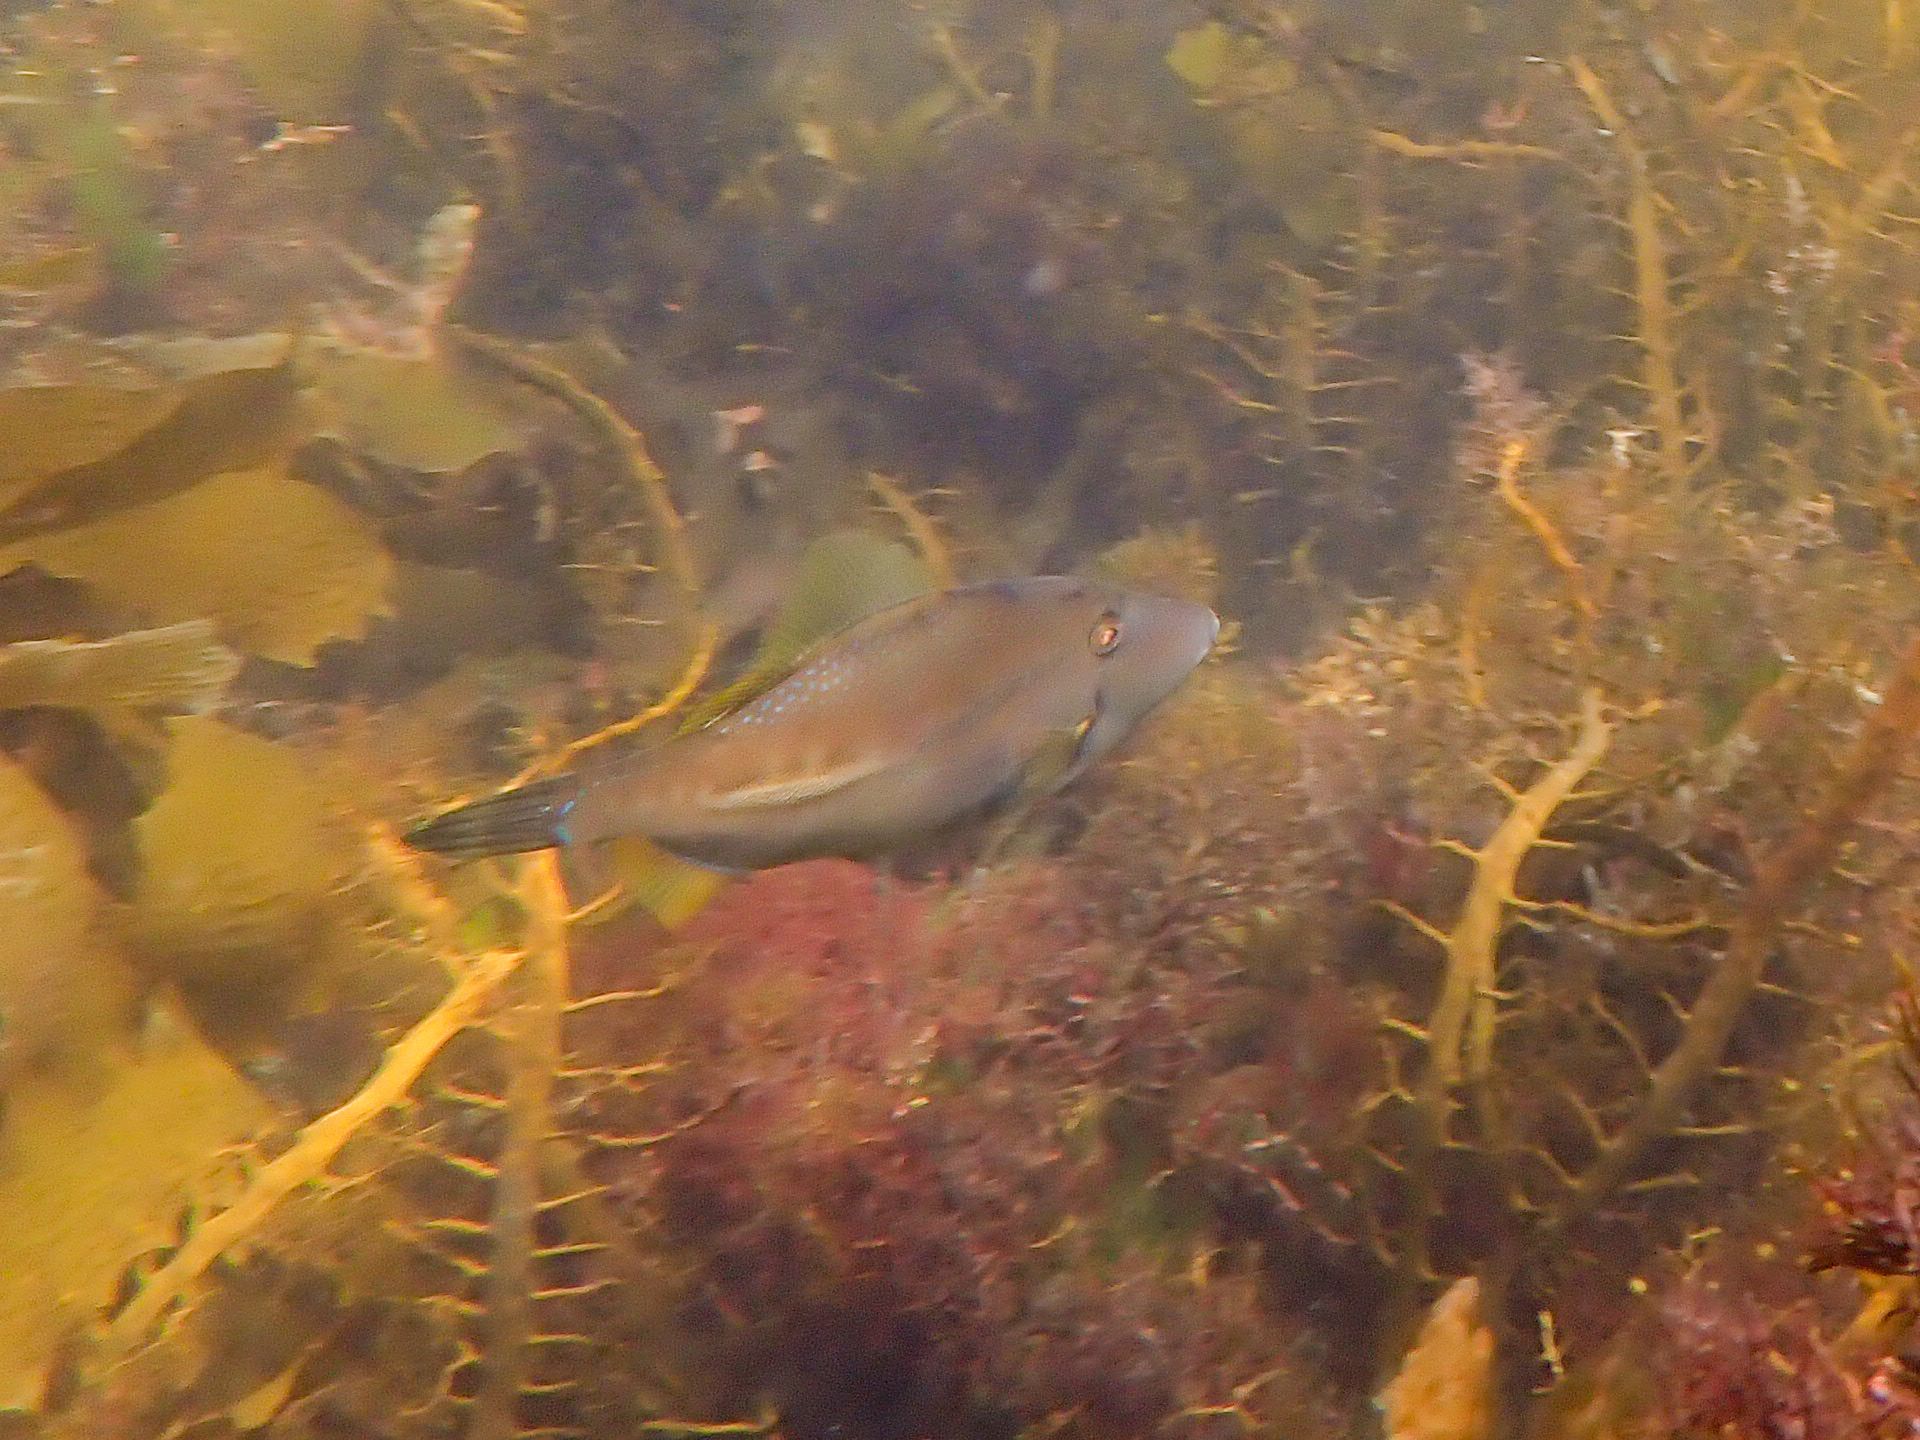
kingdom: Animalia
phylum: Chordata
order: Tetraodontiformes
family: Monacanthidae
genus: Acanthaluteres
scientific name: Acanthaluteres vittiger
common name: Brown leatherjacket
